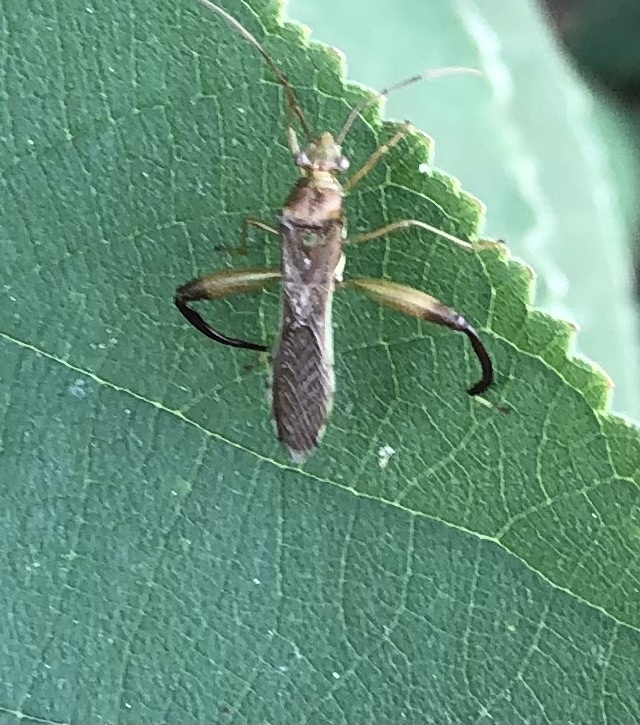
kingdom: Animalia
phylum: Arthropoda
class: Insecta
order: Hemiptera
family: Alydidae
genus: Hyalymenus
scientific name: Hyalymenus tarsatus
